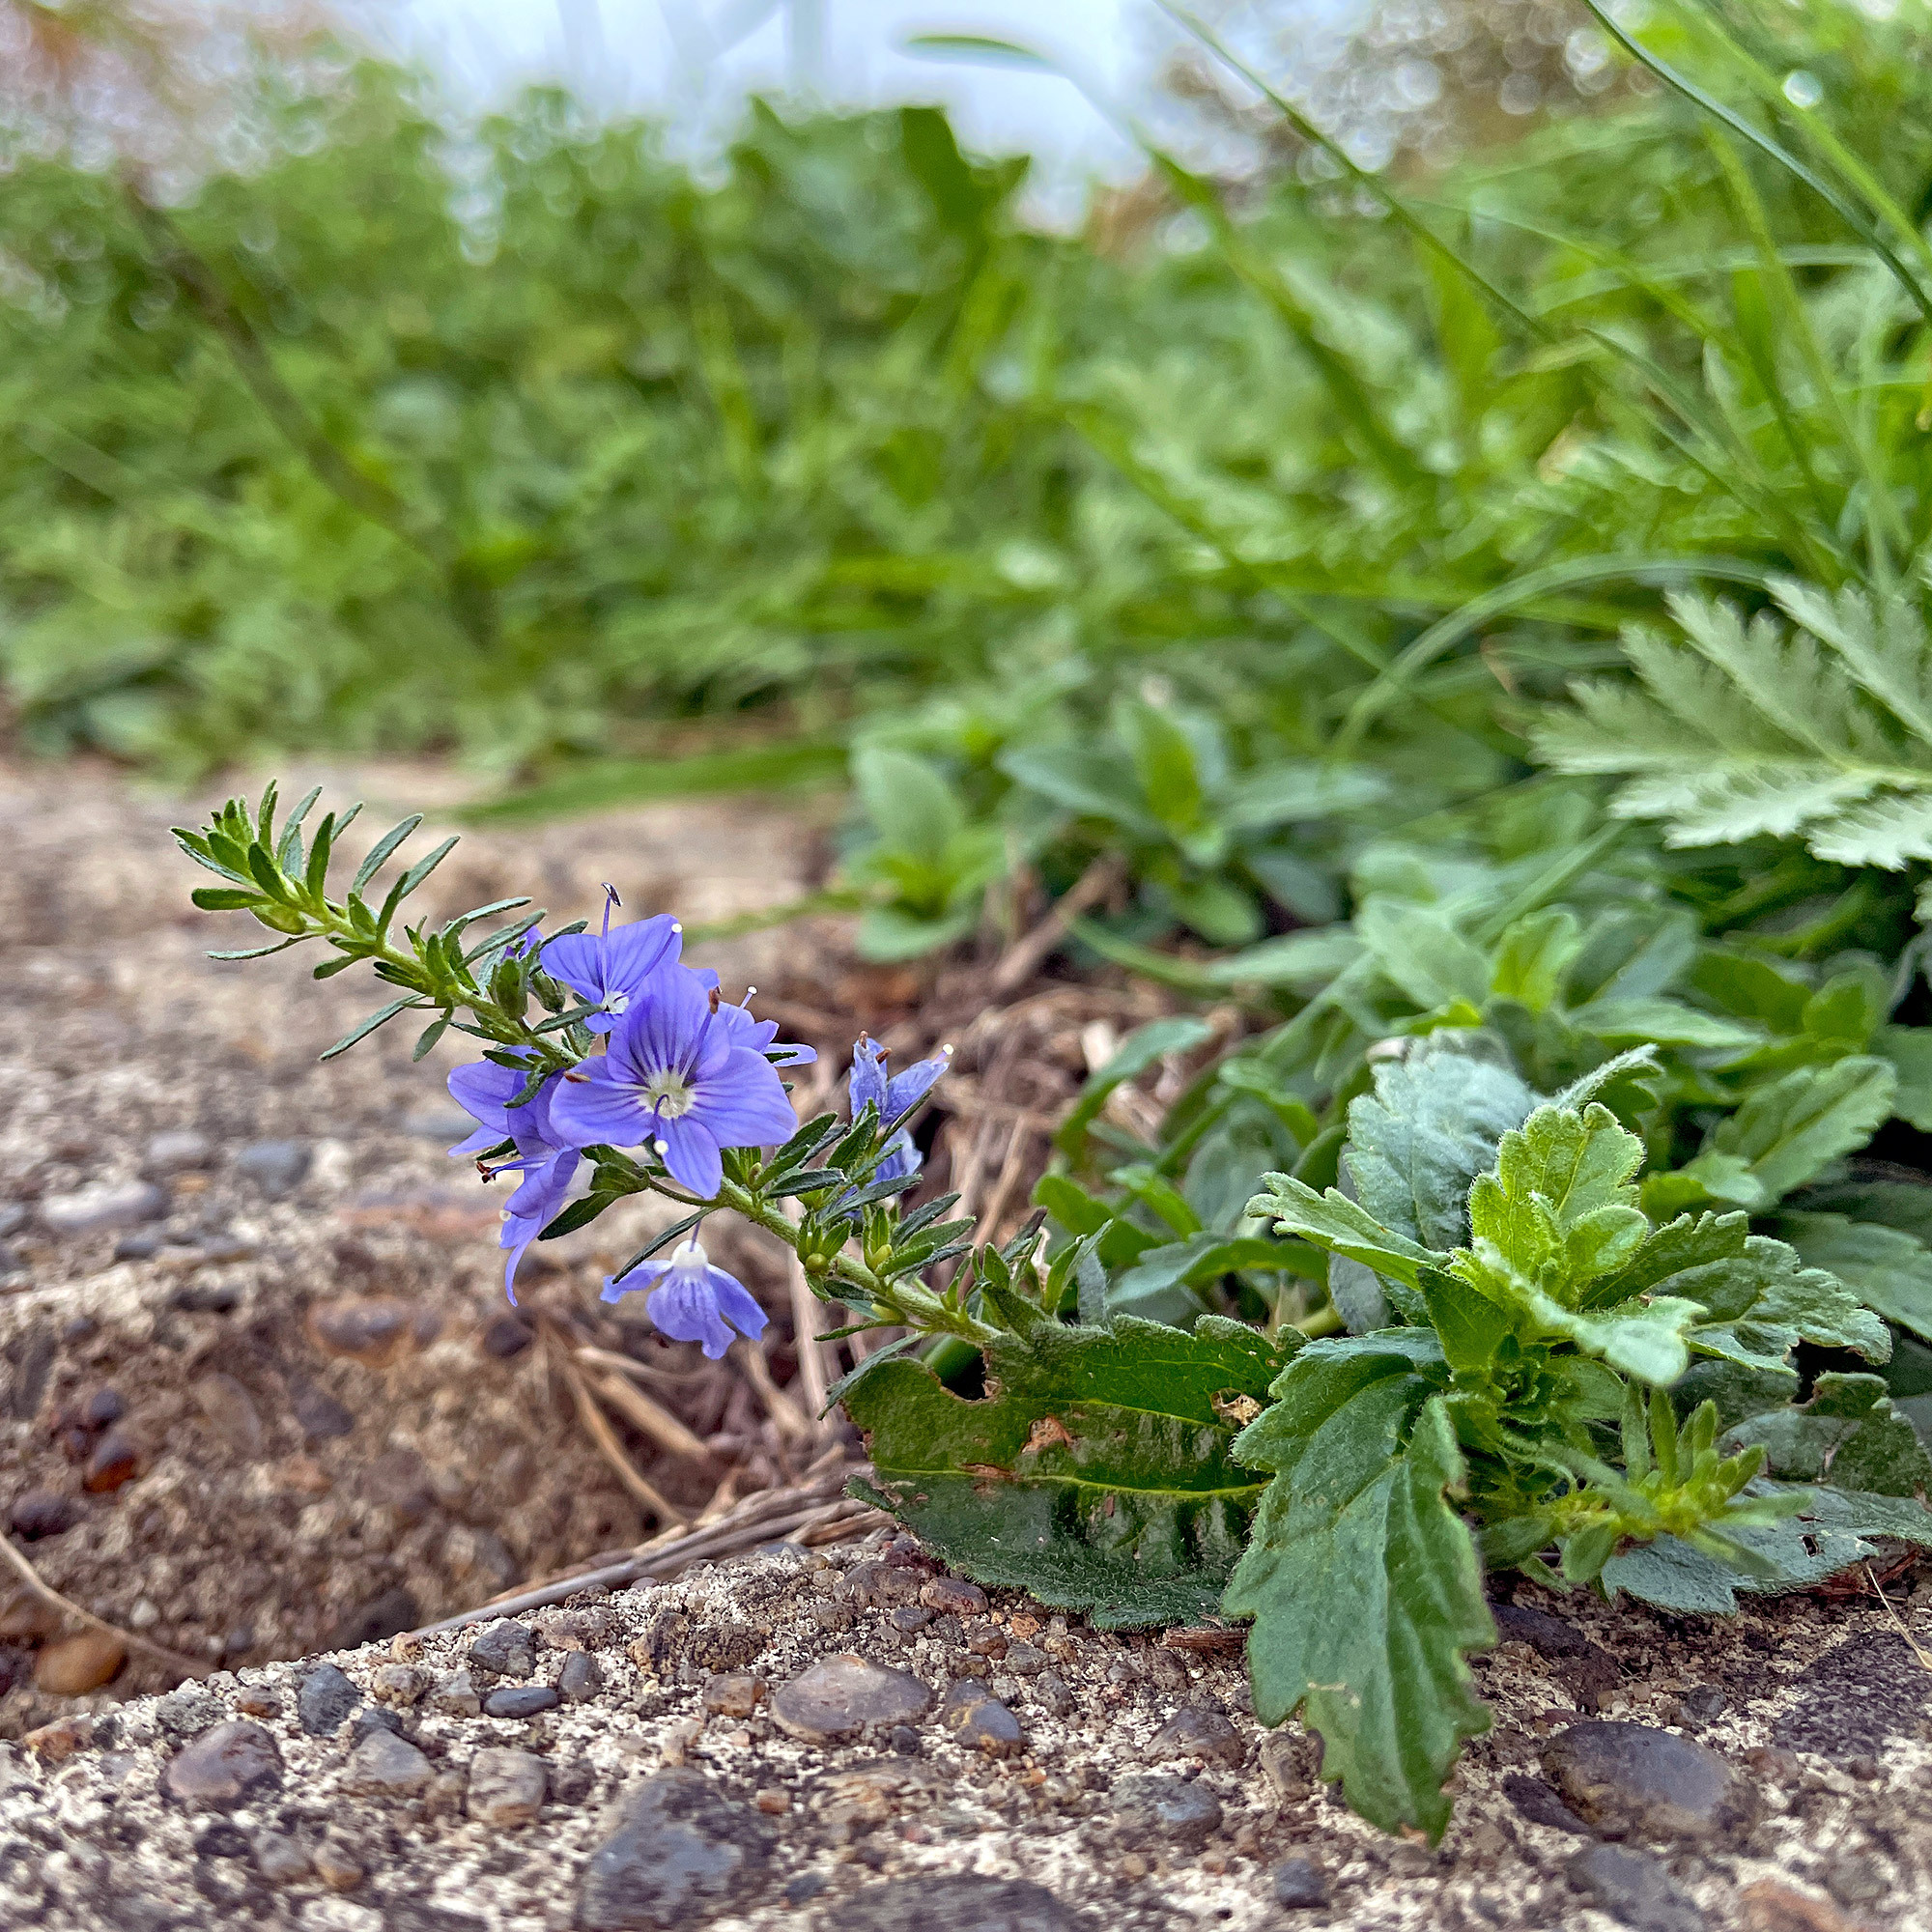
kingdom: Plantae
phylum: Tracheophyta
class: Magnoliopsida
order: Lamiales
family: Plantaginaceae
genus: Veronica
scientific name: Veronica teucrium
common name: Large speedwell
